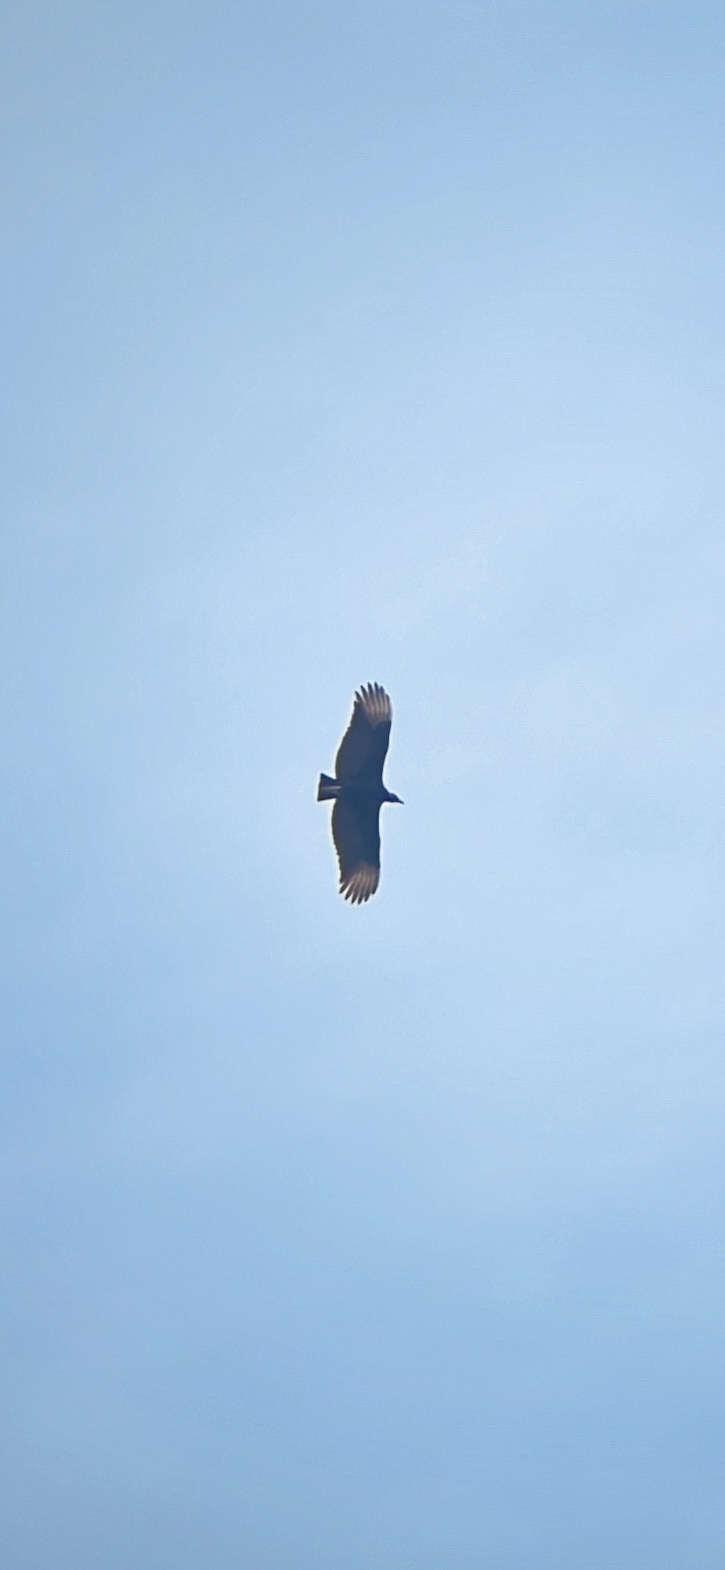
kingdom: Animalia
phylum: Chordata
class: Aves
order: Accipitriformes
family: Cathartidae
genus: Coragyps
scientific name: Coragyps atratus
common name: Black vulture
